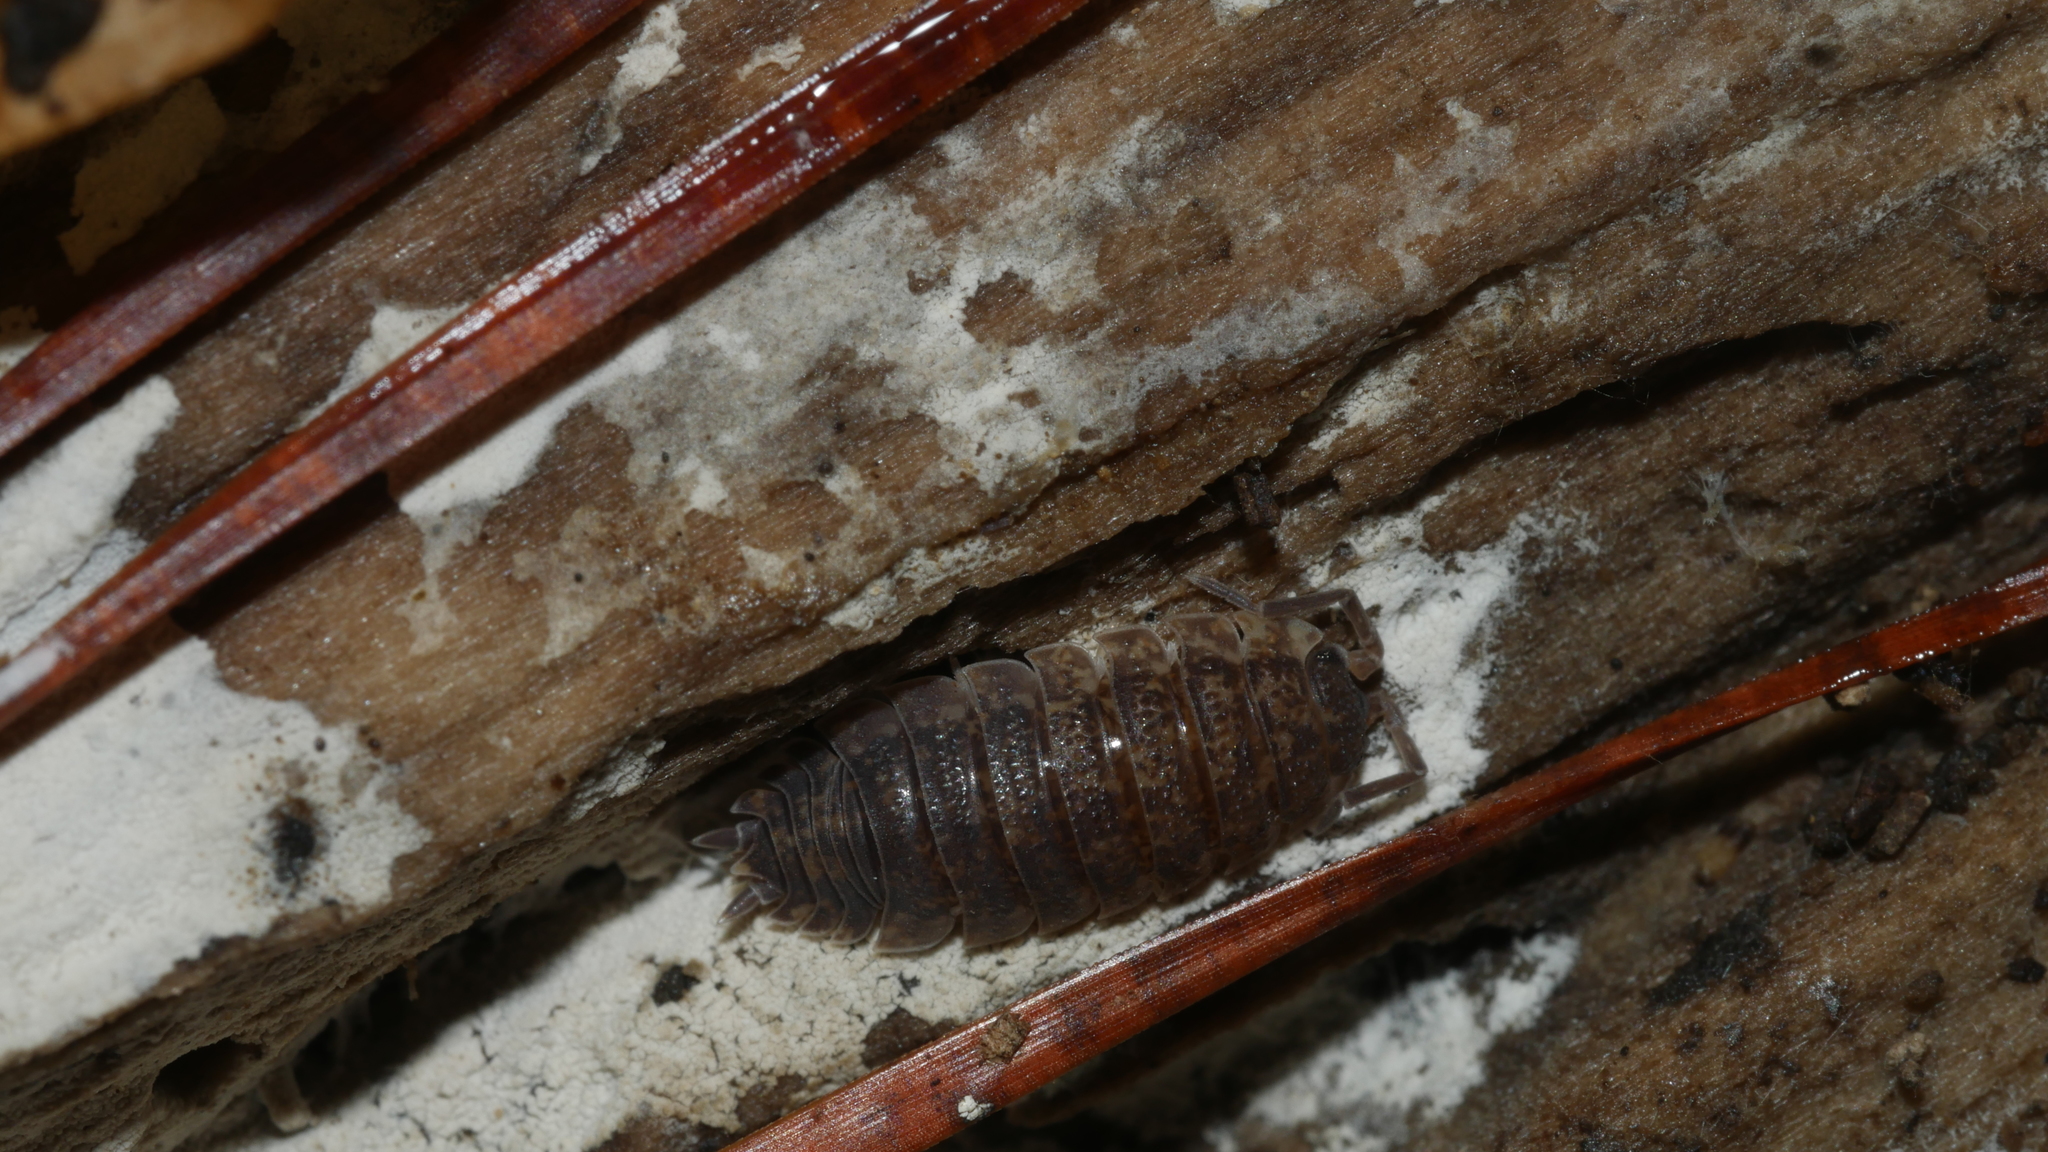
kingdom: Animalia
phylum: Arthropoda
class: Malacostraca
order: Isopoda
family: Porcellionidae
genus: Porcellio
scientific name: Porcellio scaber
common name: Common rough woodlouse
